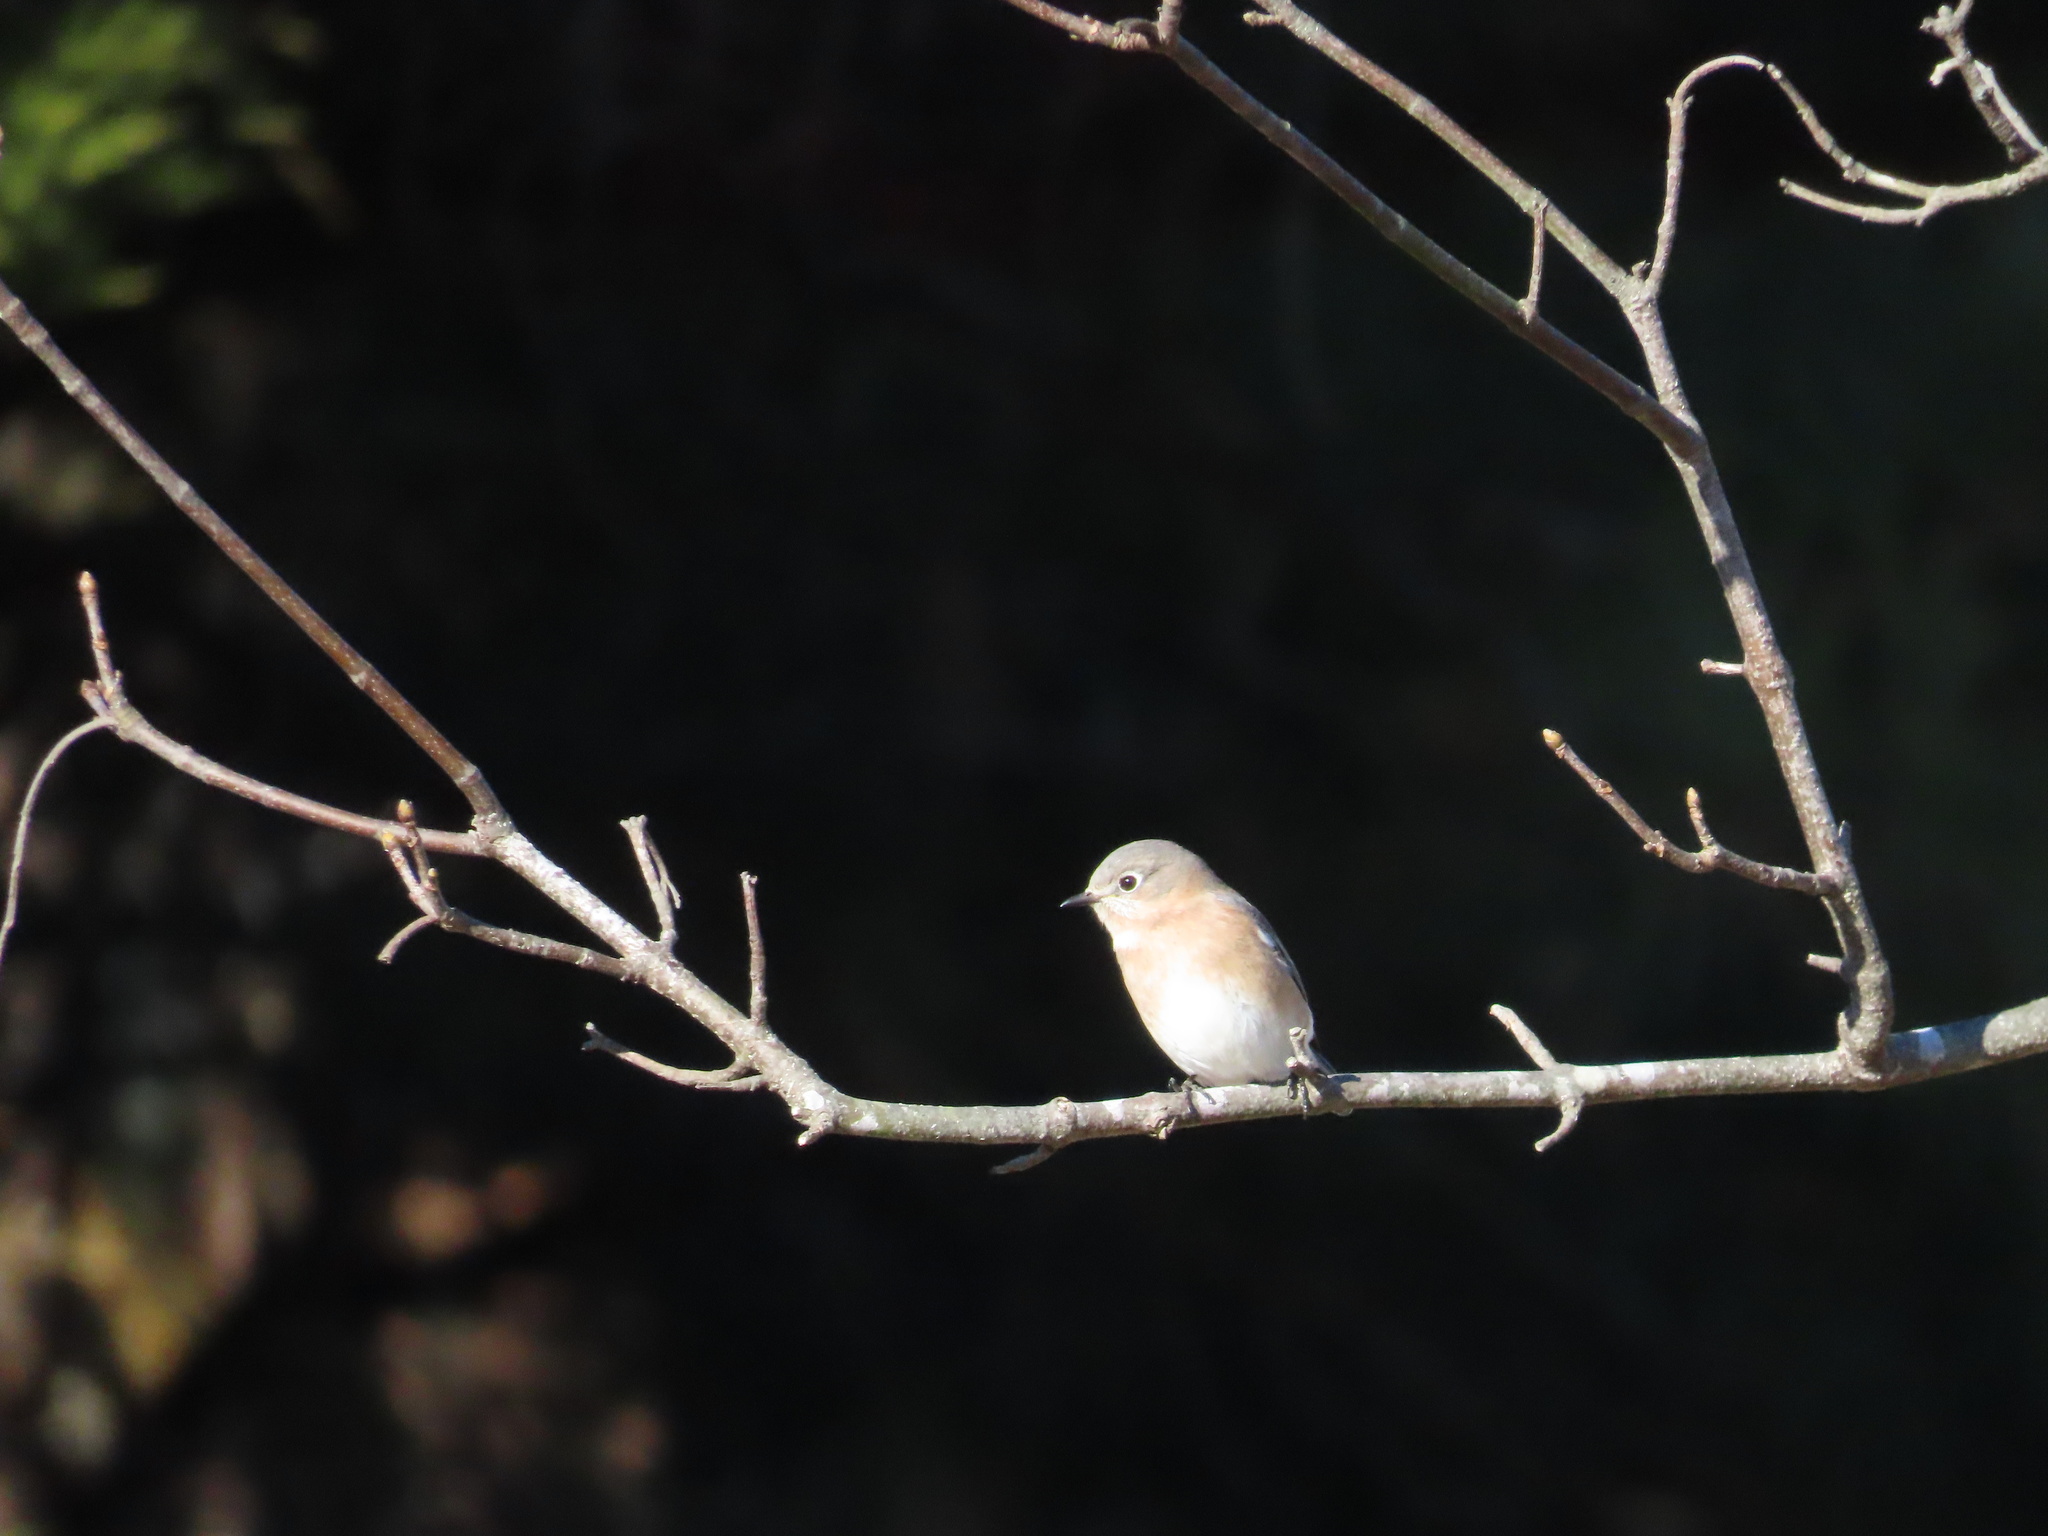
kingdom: Animalia
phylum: Chordata
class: Aves
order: Passeriformes
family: Turdidae
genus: Sialia
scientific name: Sialia sialis
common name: Eastern bluebird
